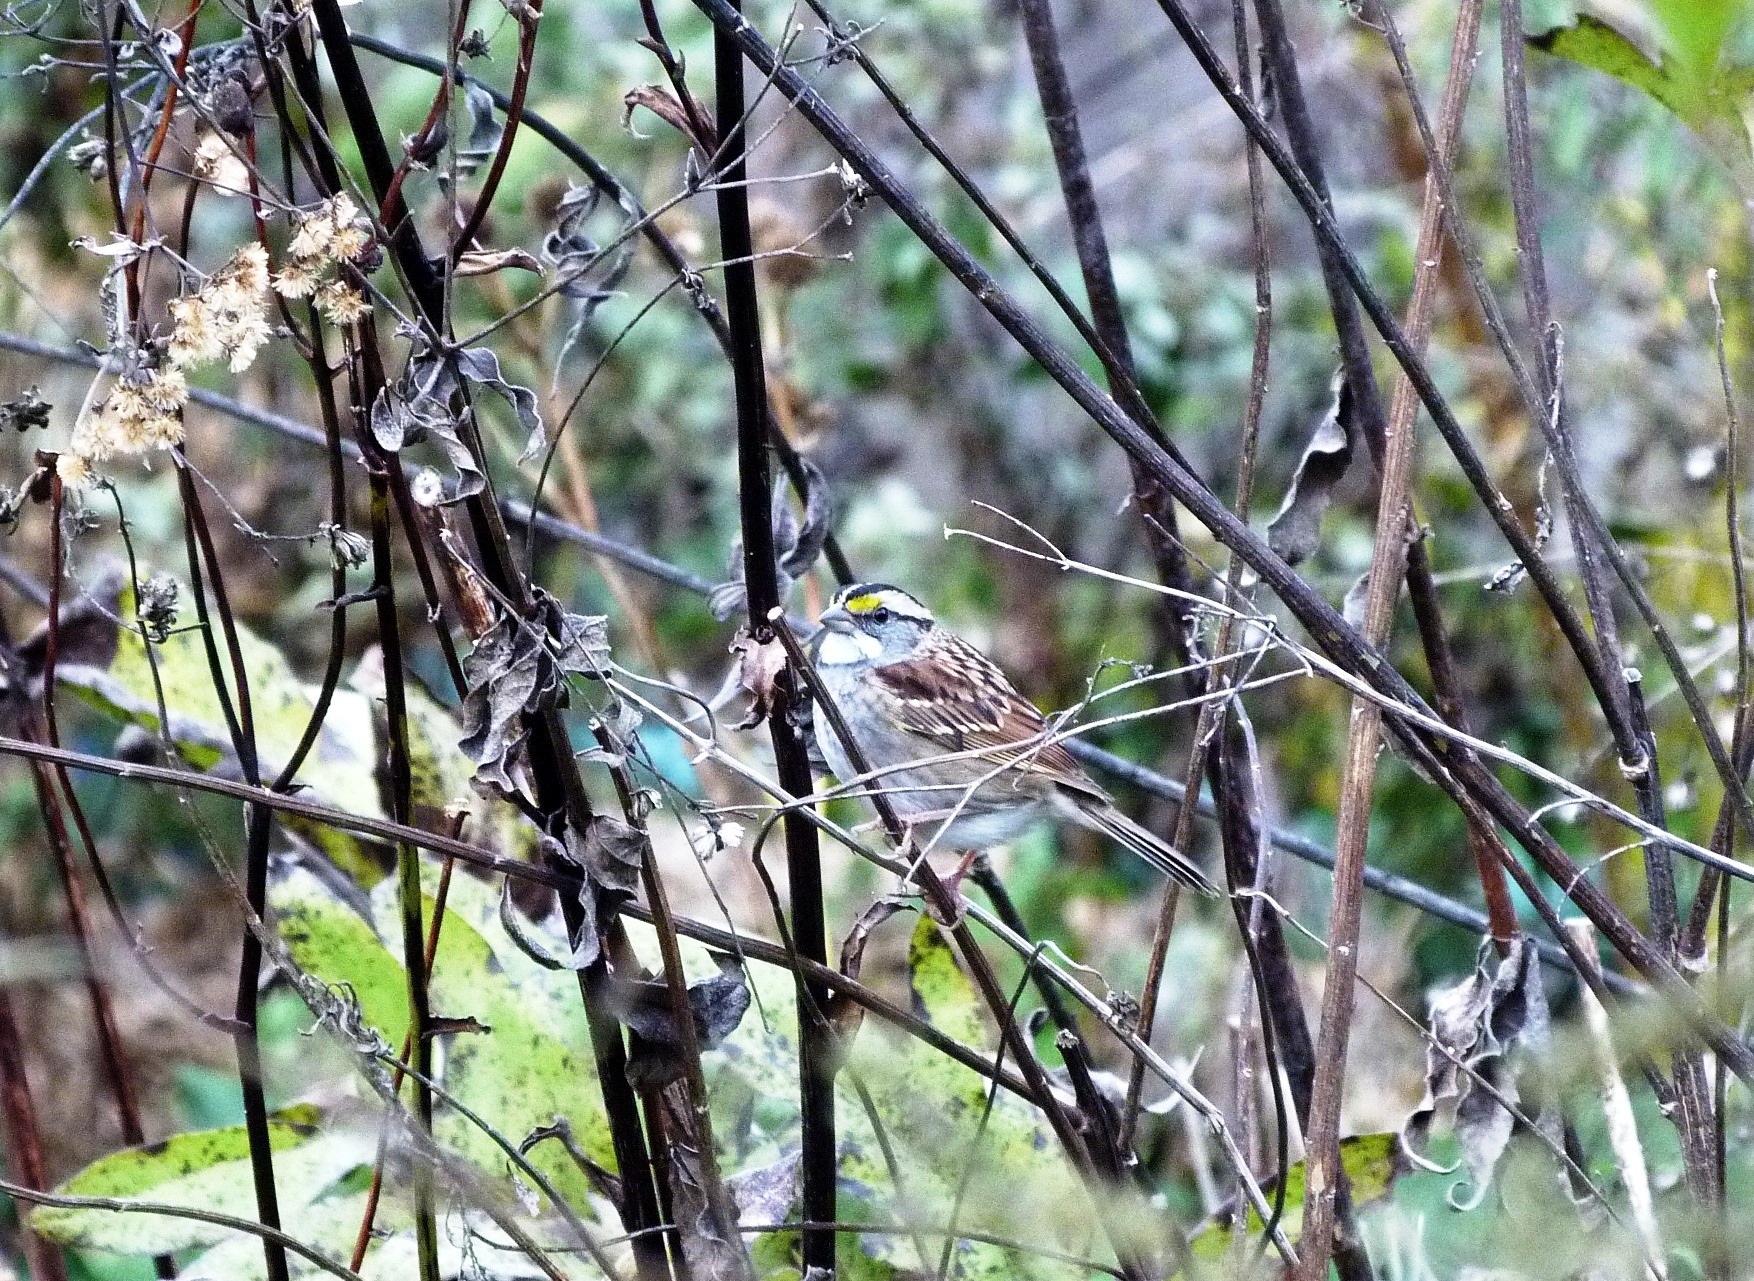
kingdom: Animalia
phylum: Chordata
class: Aves
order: Passeriformes
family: Passerellidae
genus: Zonotrichia
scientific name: Zonotrichia albicollis
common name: White-throated sparrow
